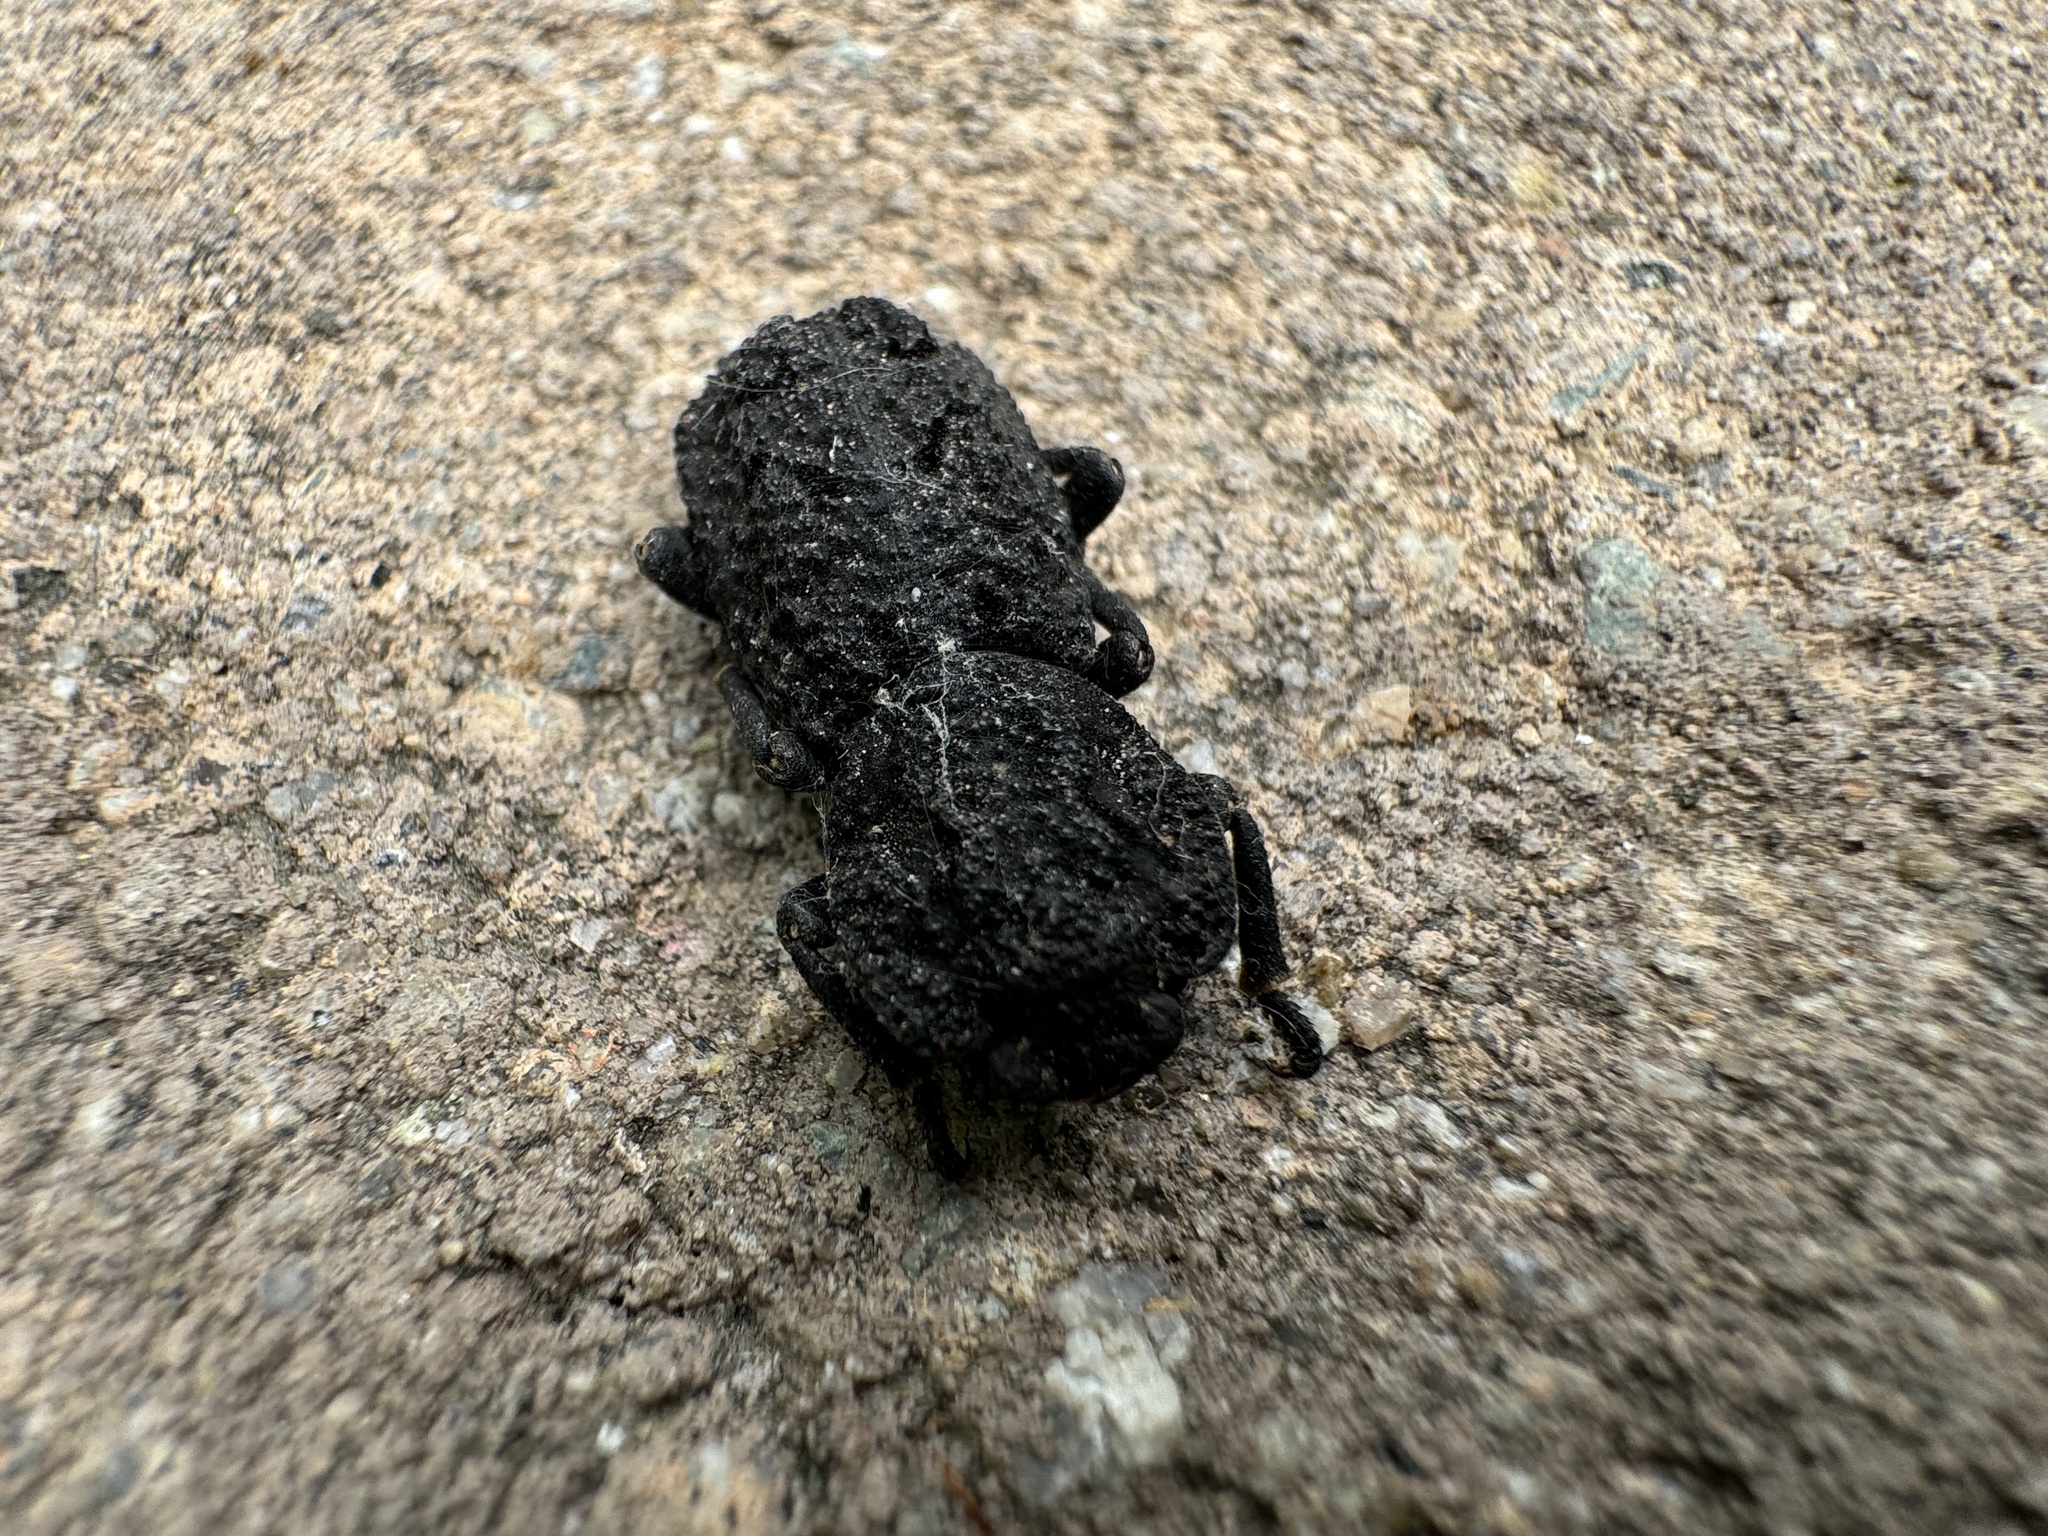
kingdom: Animalia
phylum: Arthropoda
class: Insecta
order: Coleoptera
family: Zopheridae
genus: Phloeodes
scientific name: Phloeodes diabolicus
